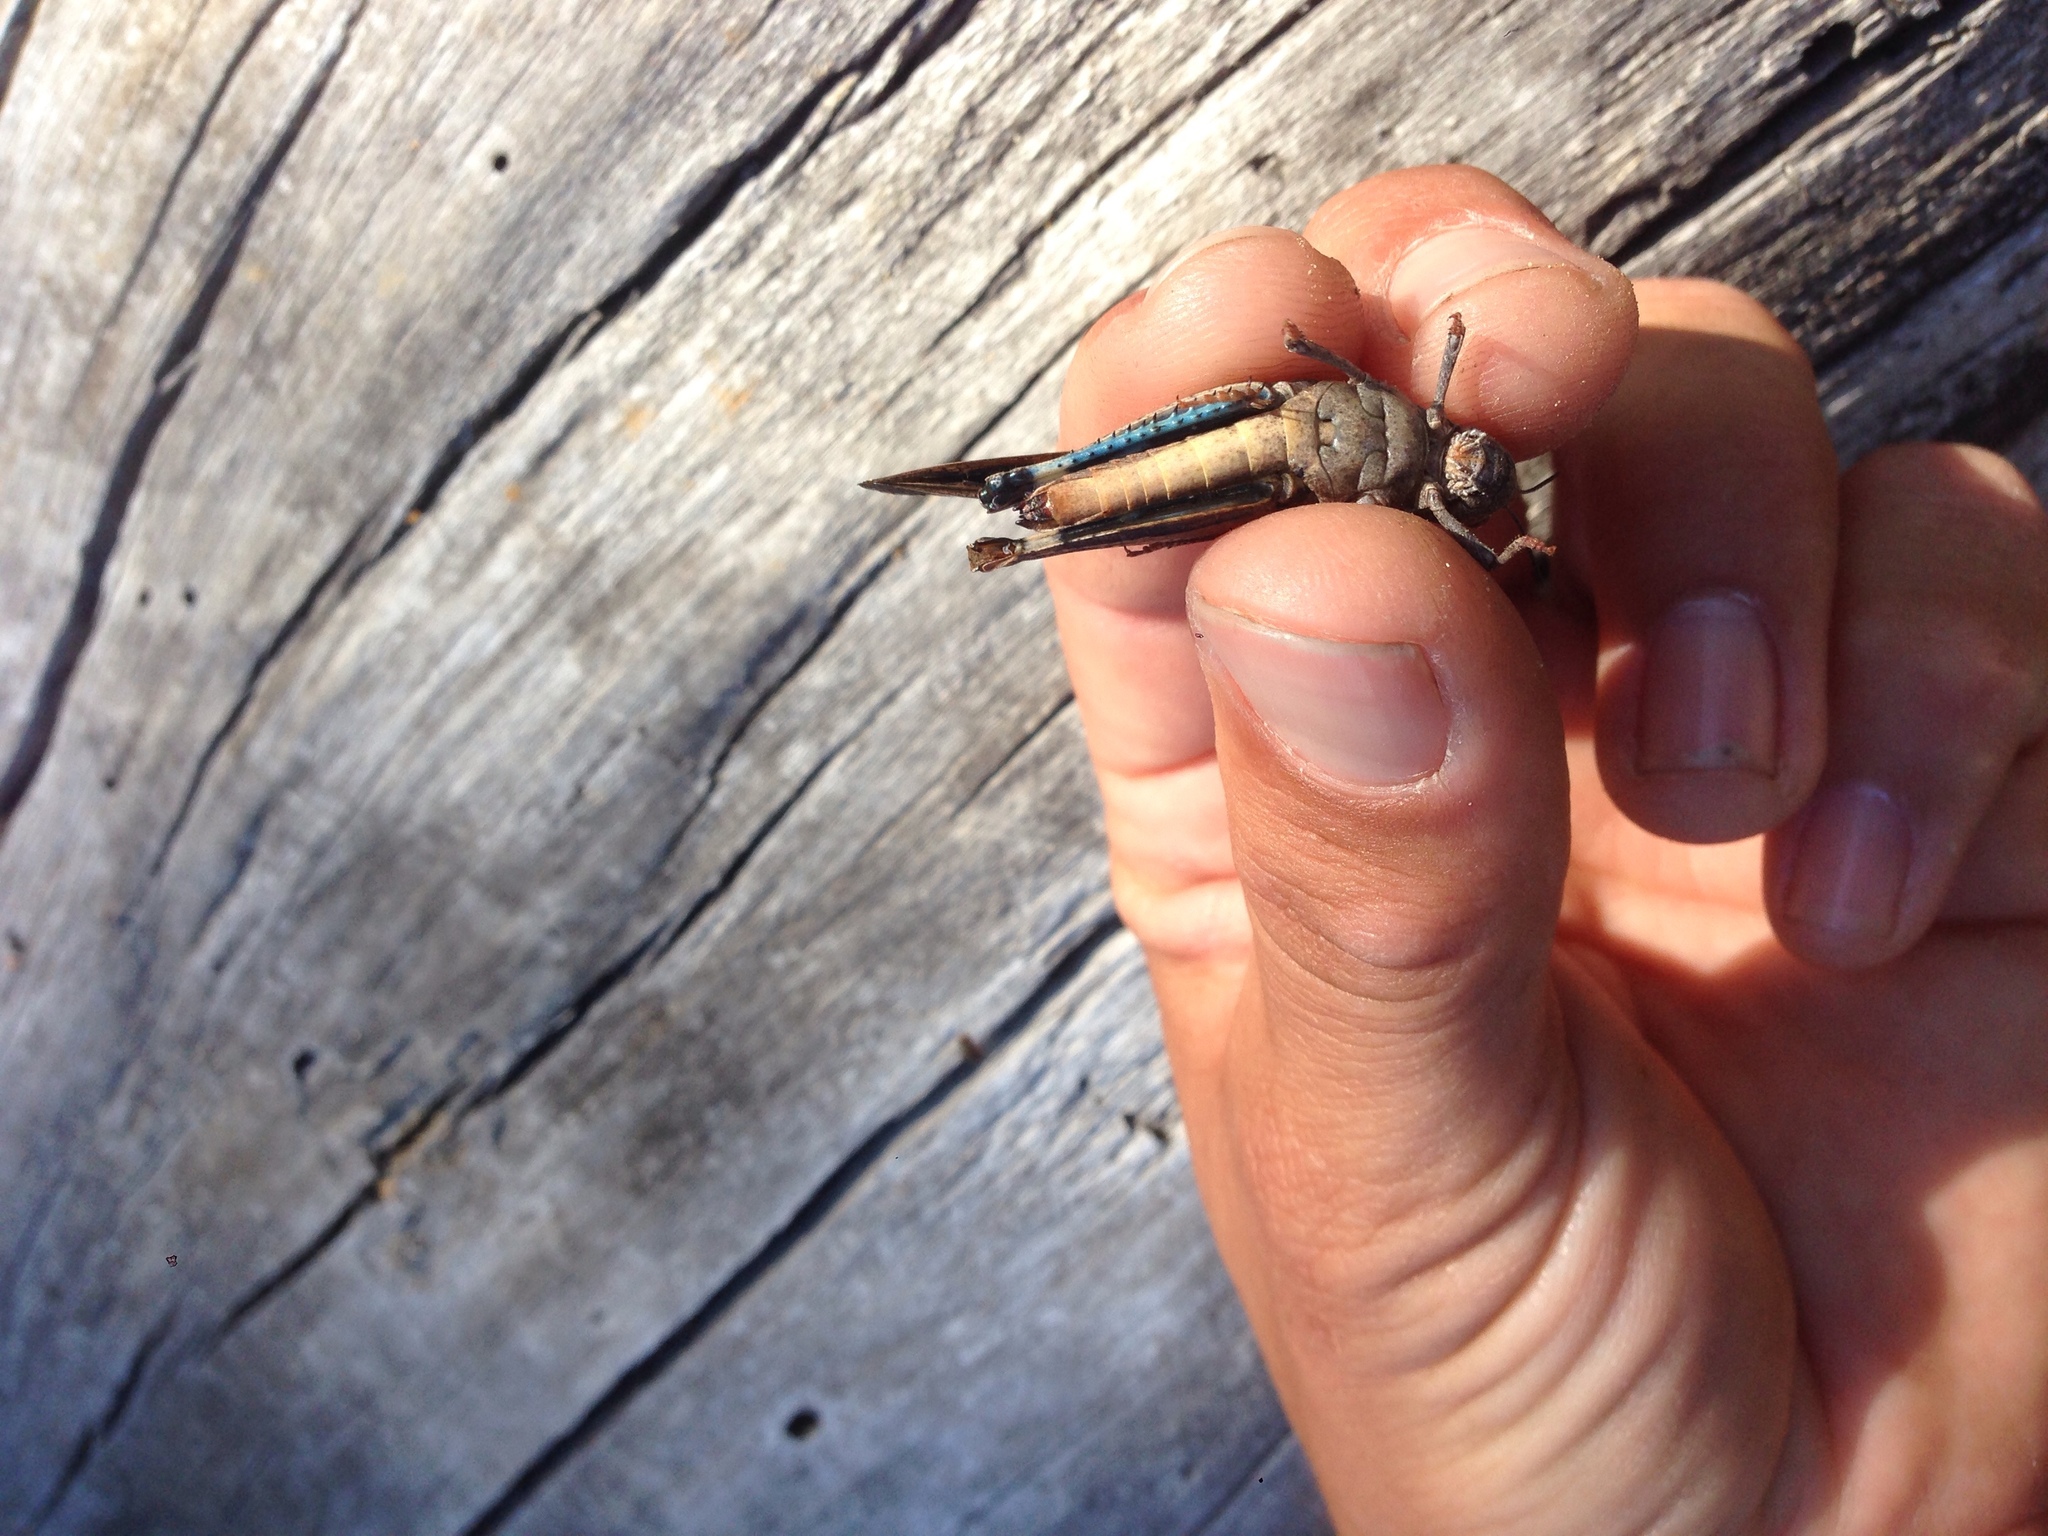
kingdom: Animalia
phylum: Arthropoda
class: Insecta
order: Orthoptera
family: Acrididae
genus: Arphia
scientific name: Arphia ramona
